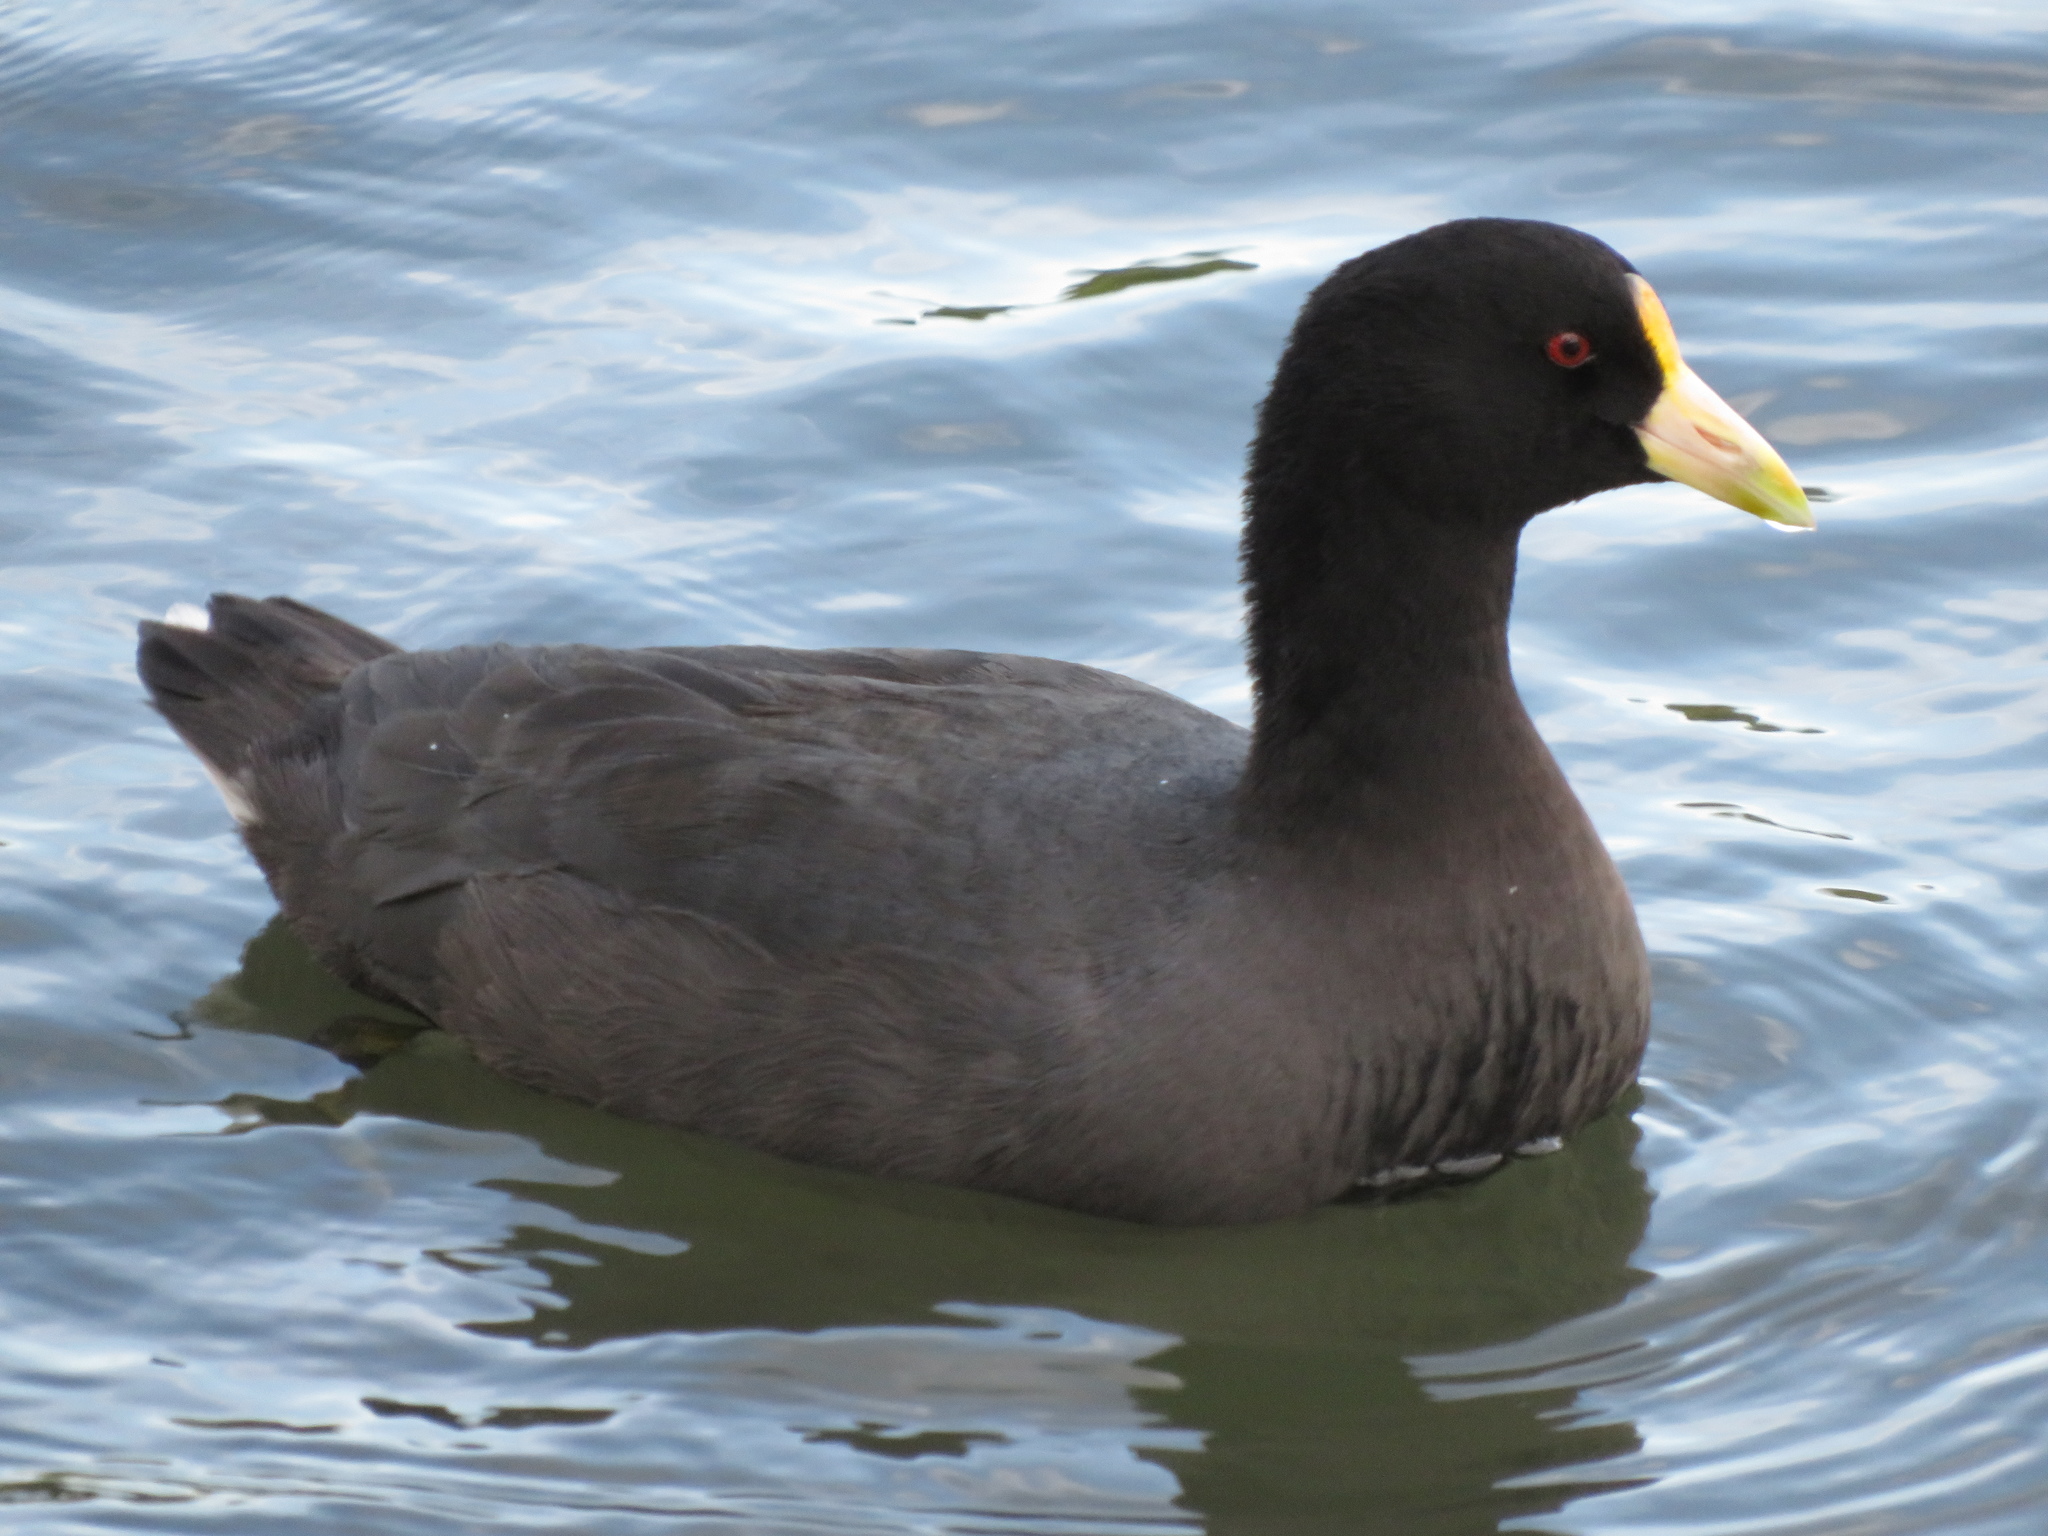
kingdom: Animalia
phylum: Chordata
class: Aves
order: Gruiformes
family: Rallidae
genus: Fulica
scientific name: Fulica leucoptera
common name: White-winged coot
